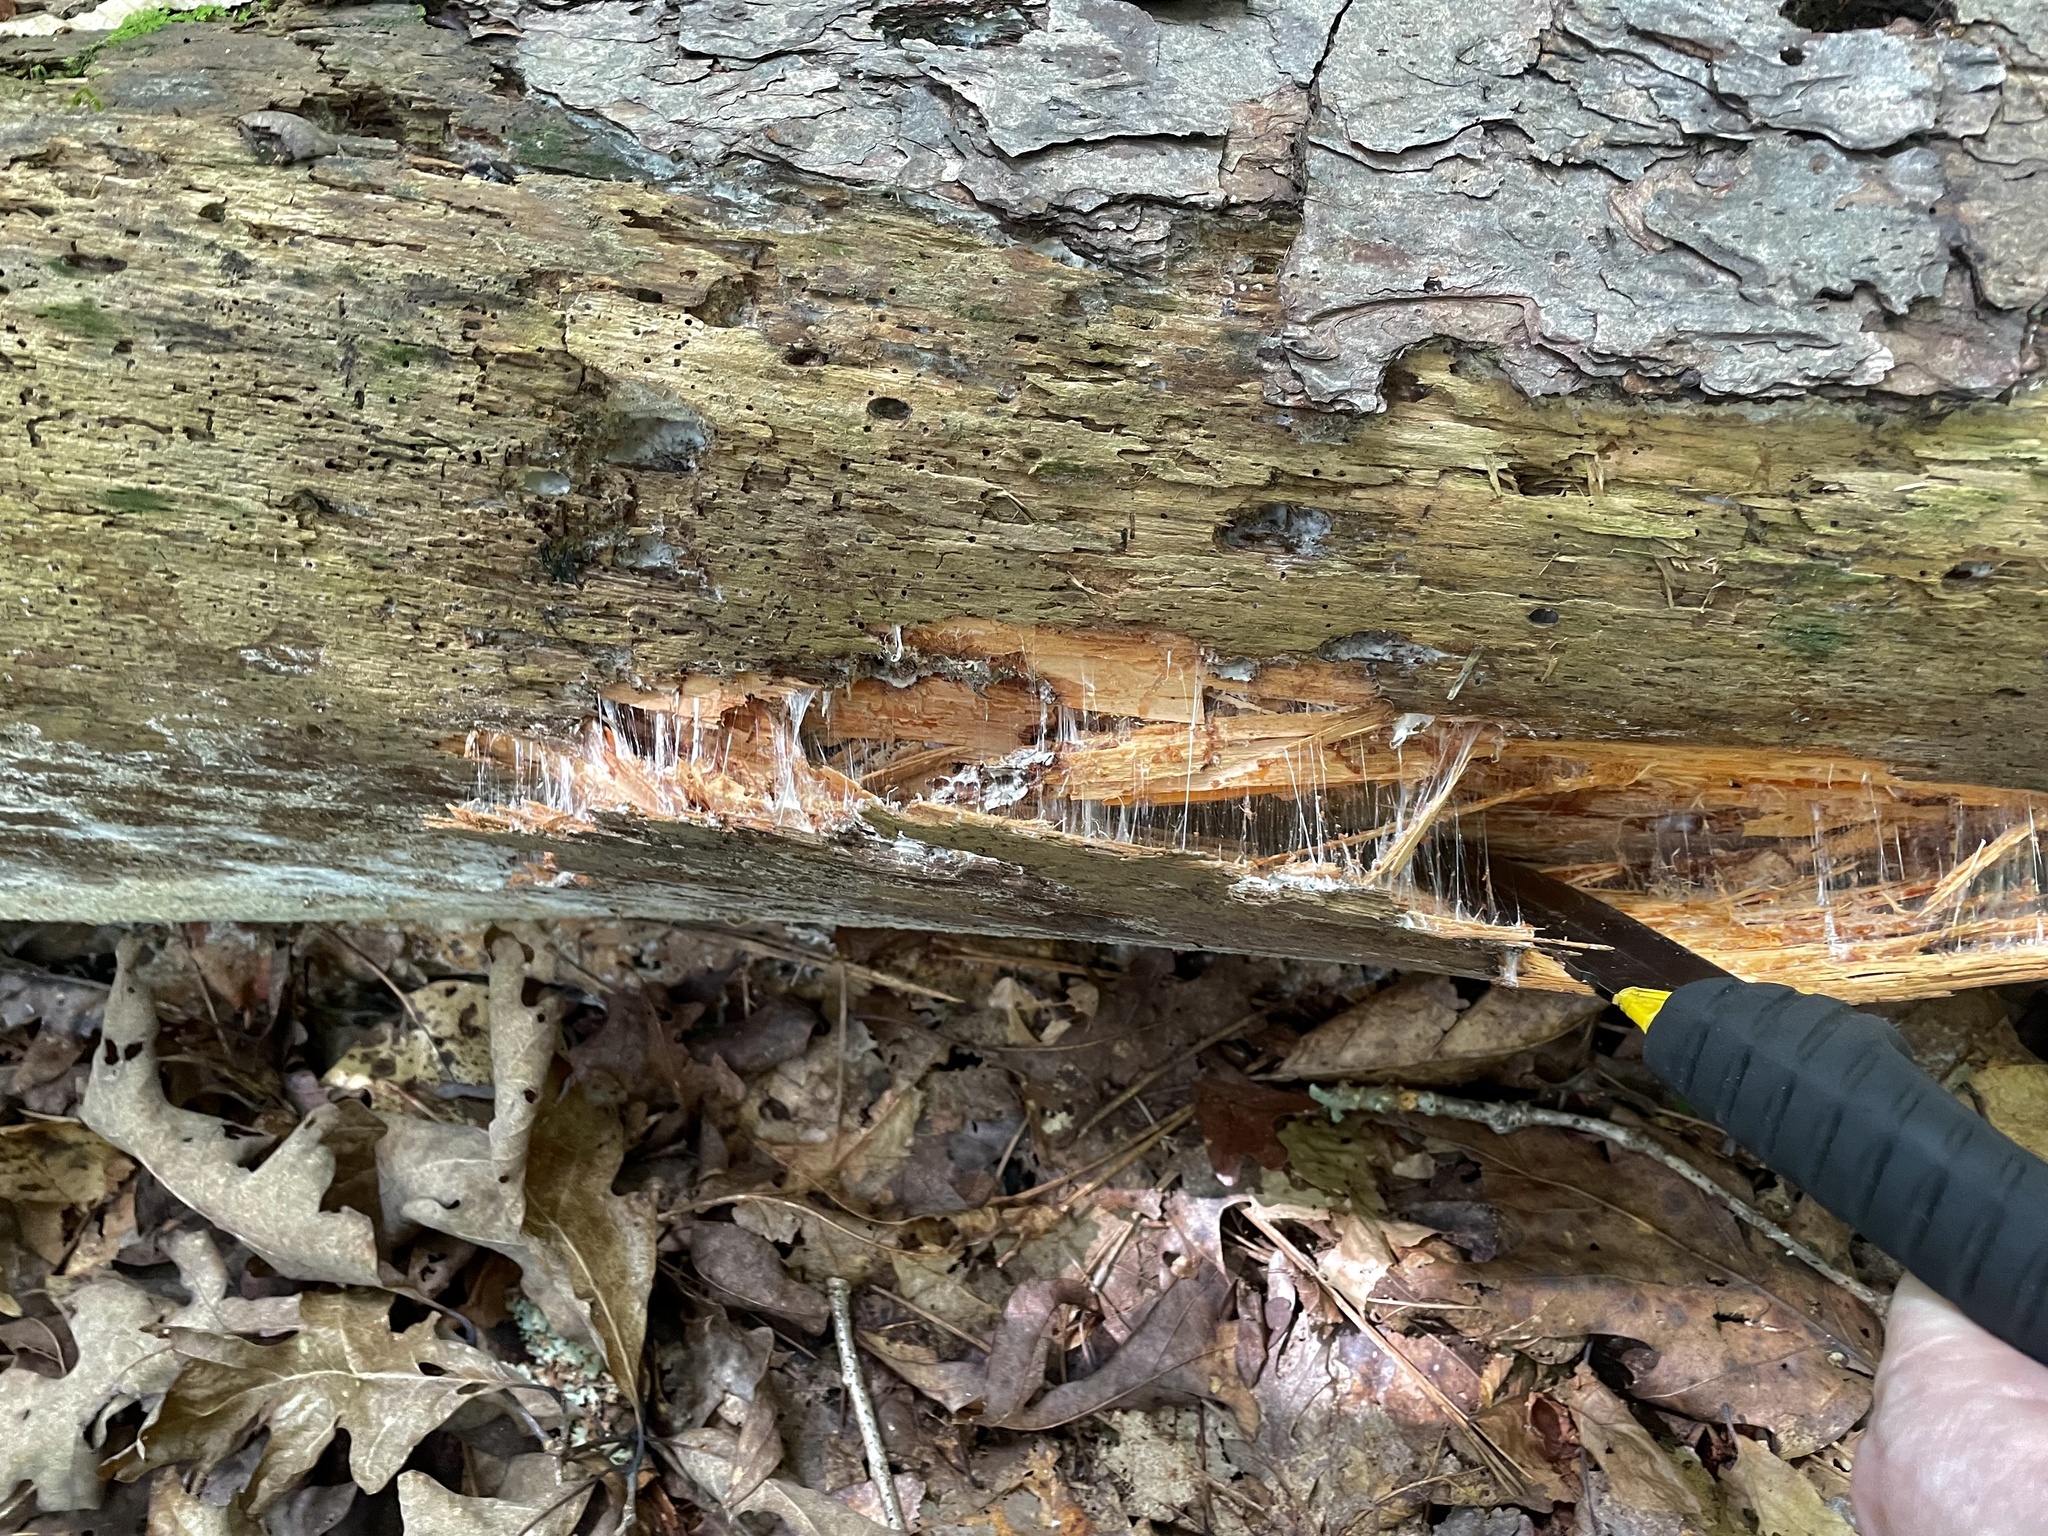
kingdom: Fungi
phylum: Basidiomycota
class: Agaricomycetes
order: Russulales
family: Bondarzewiaceae
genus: Wrightoporia
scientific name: Wrightoporia austrosinensis
